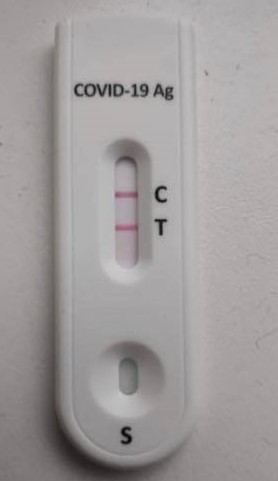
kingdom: Viruses
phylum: Pisuviricota
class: Pisoniviricetes
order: Nidovirales
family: Coronaviridae
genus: Betacoronavirus
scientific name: Betacoronavirus
